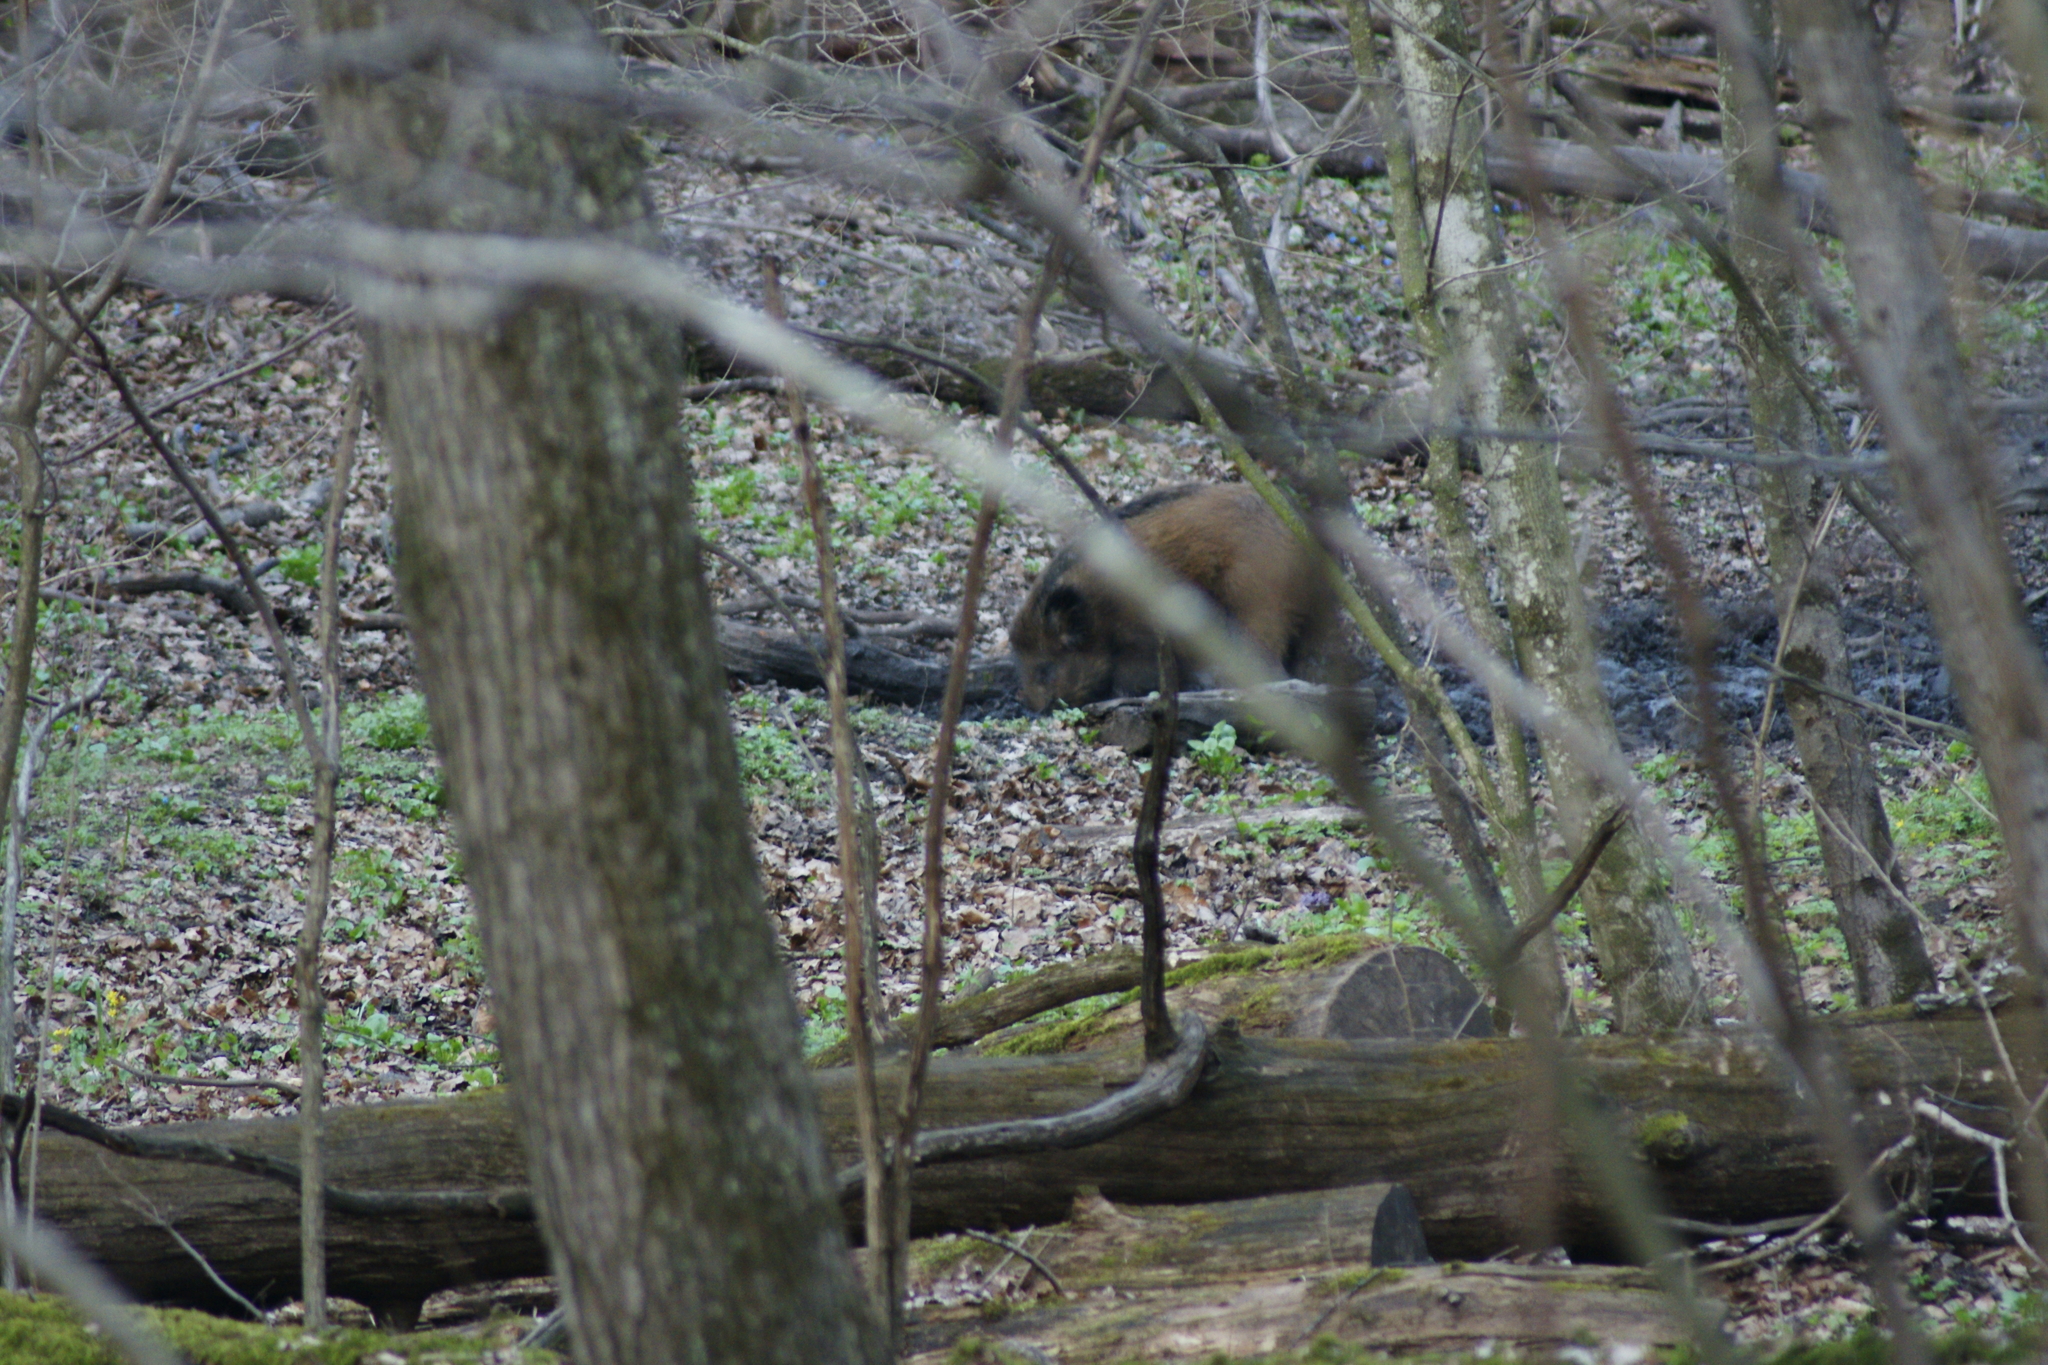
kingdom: Animalia
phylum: Chordata
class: Mammalia
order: Artiodactyla
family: Suidae
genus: Sus
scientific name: Sus scrofa
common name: Wild boar
